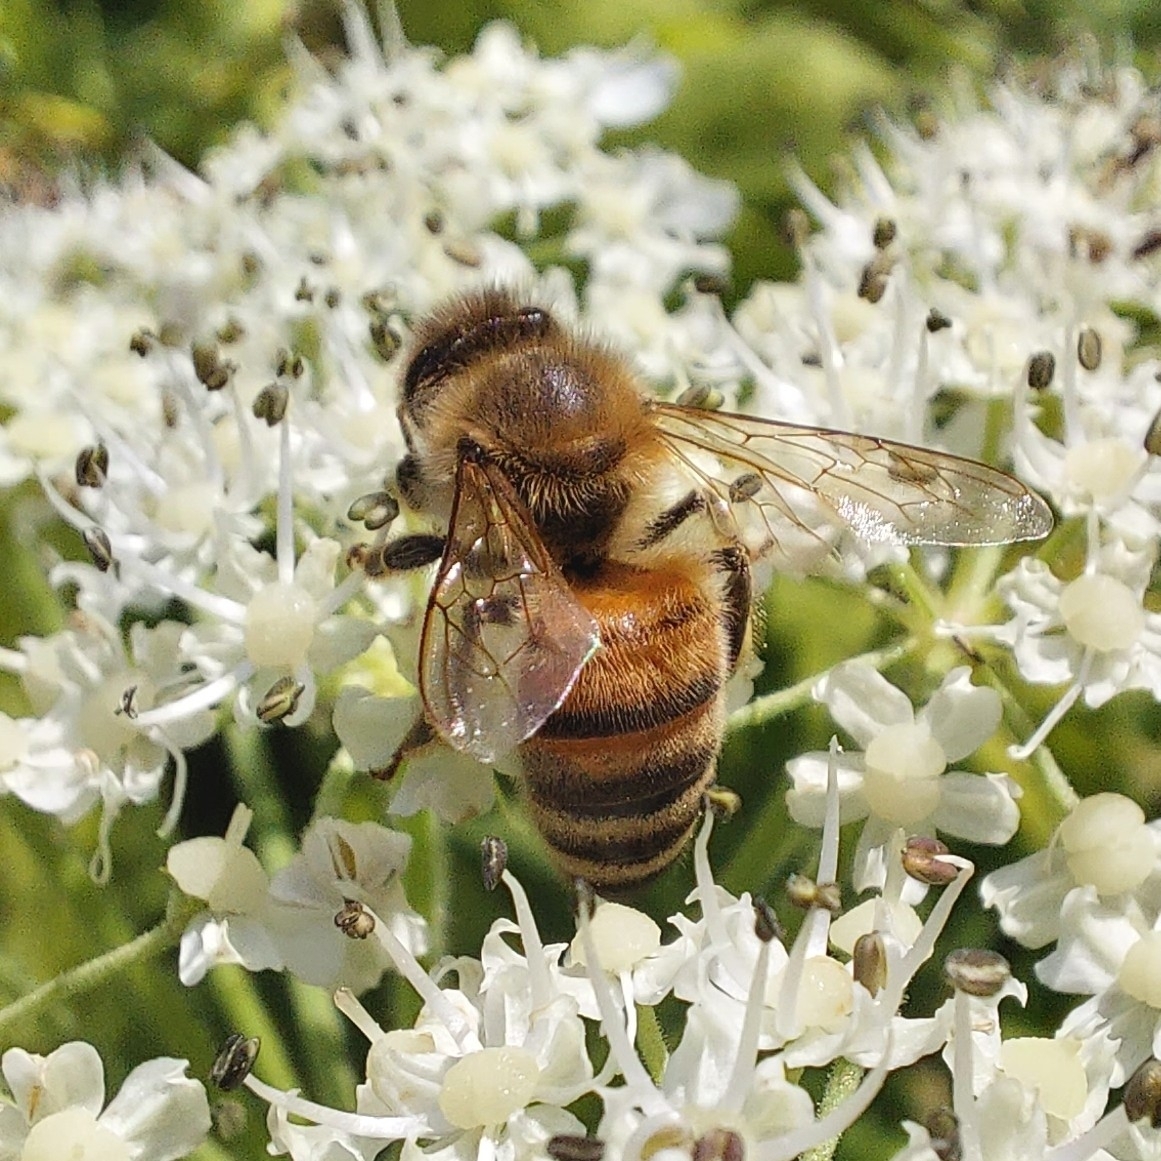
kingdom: Animalia
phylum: Arthropoda
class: Insecta
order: Hymenoptera
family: Apidae
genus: Apis
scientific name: Apis mellifera
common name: Honey bee
